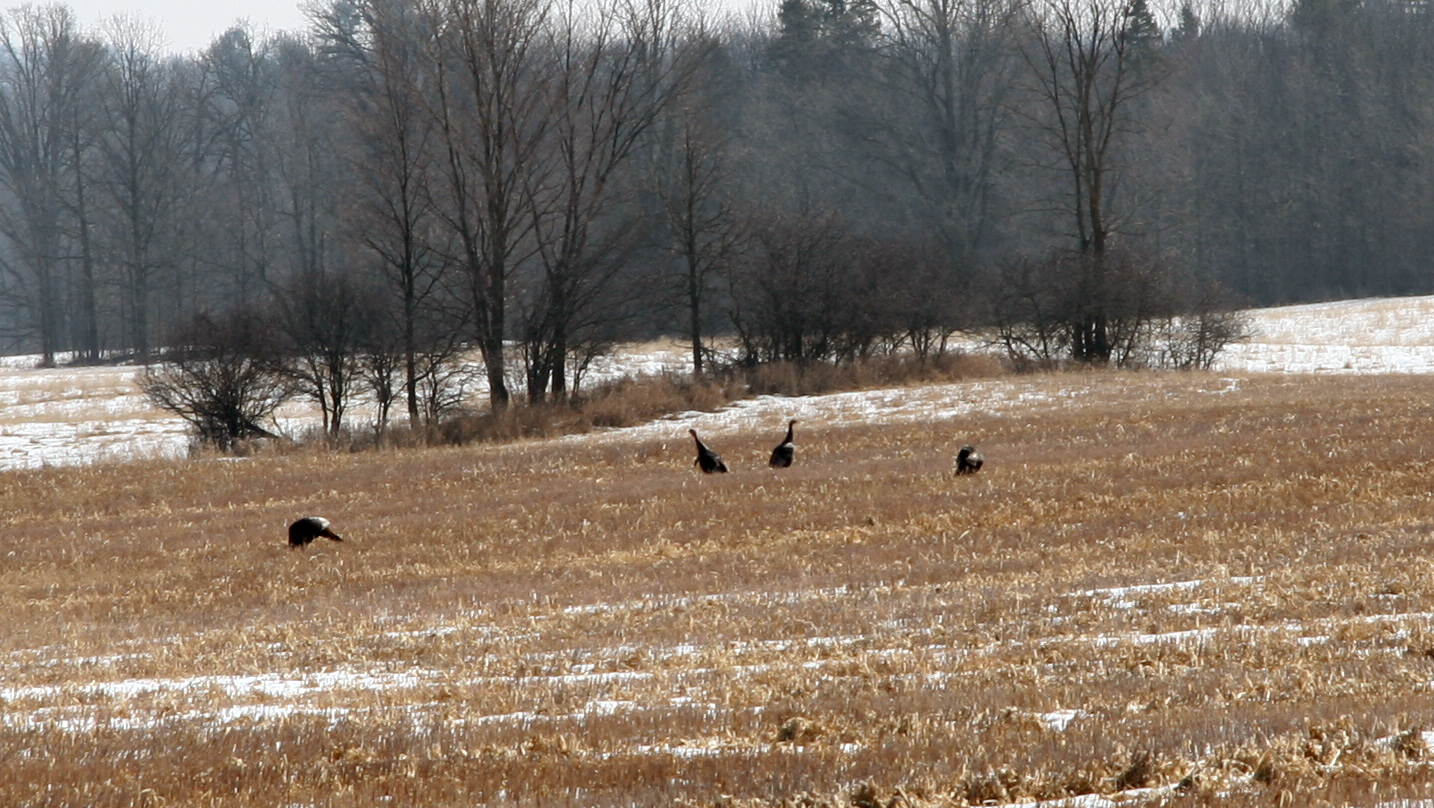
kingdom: Animalia
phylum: Chordata
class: Aves
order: Galliformes
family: Phasianidae
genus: Meleagris
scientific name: Meleagris gallopavo
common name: Wild turkey
